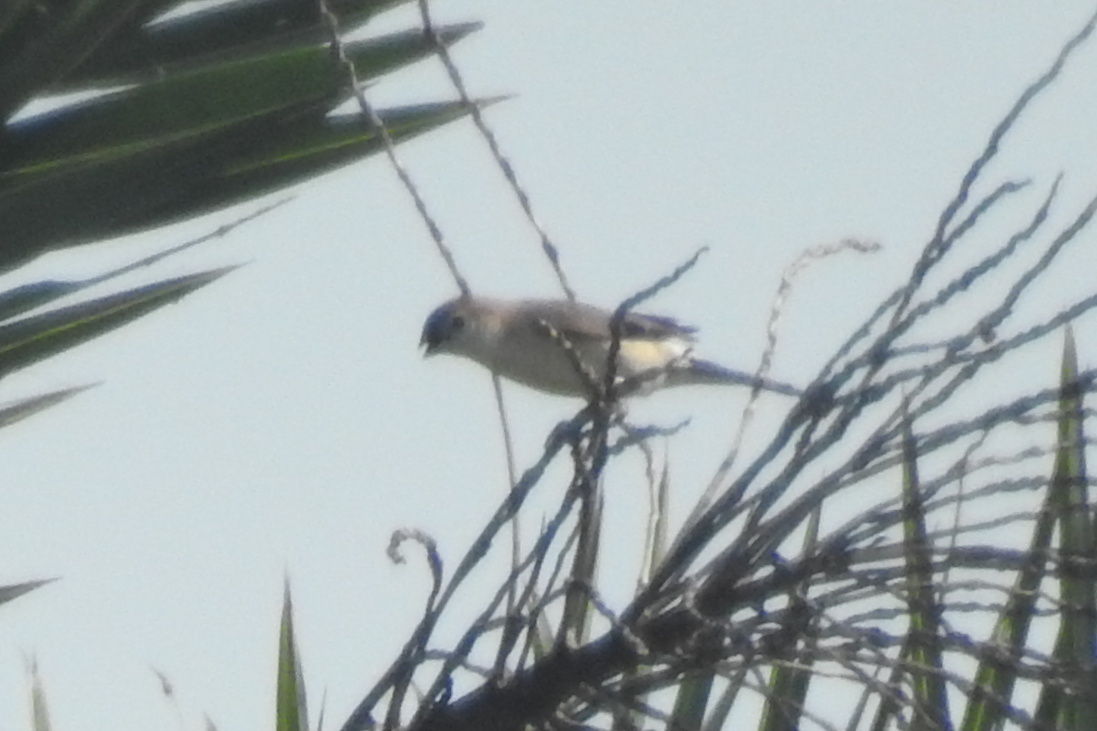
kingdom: Animalia
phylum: Chordata
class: Aves
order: Passeriformes
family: Estrildidae
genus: Euodice
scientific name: Euodice malabarica
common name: Indian silverbill
